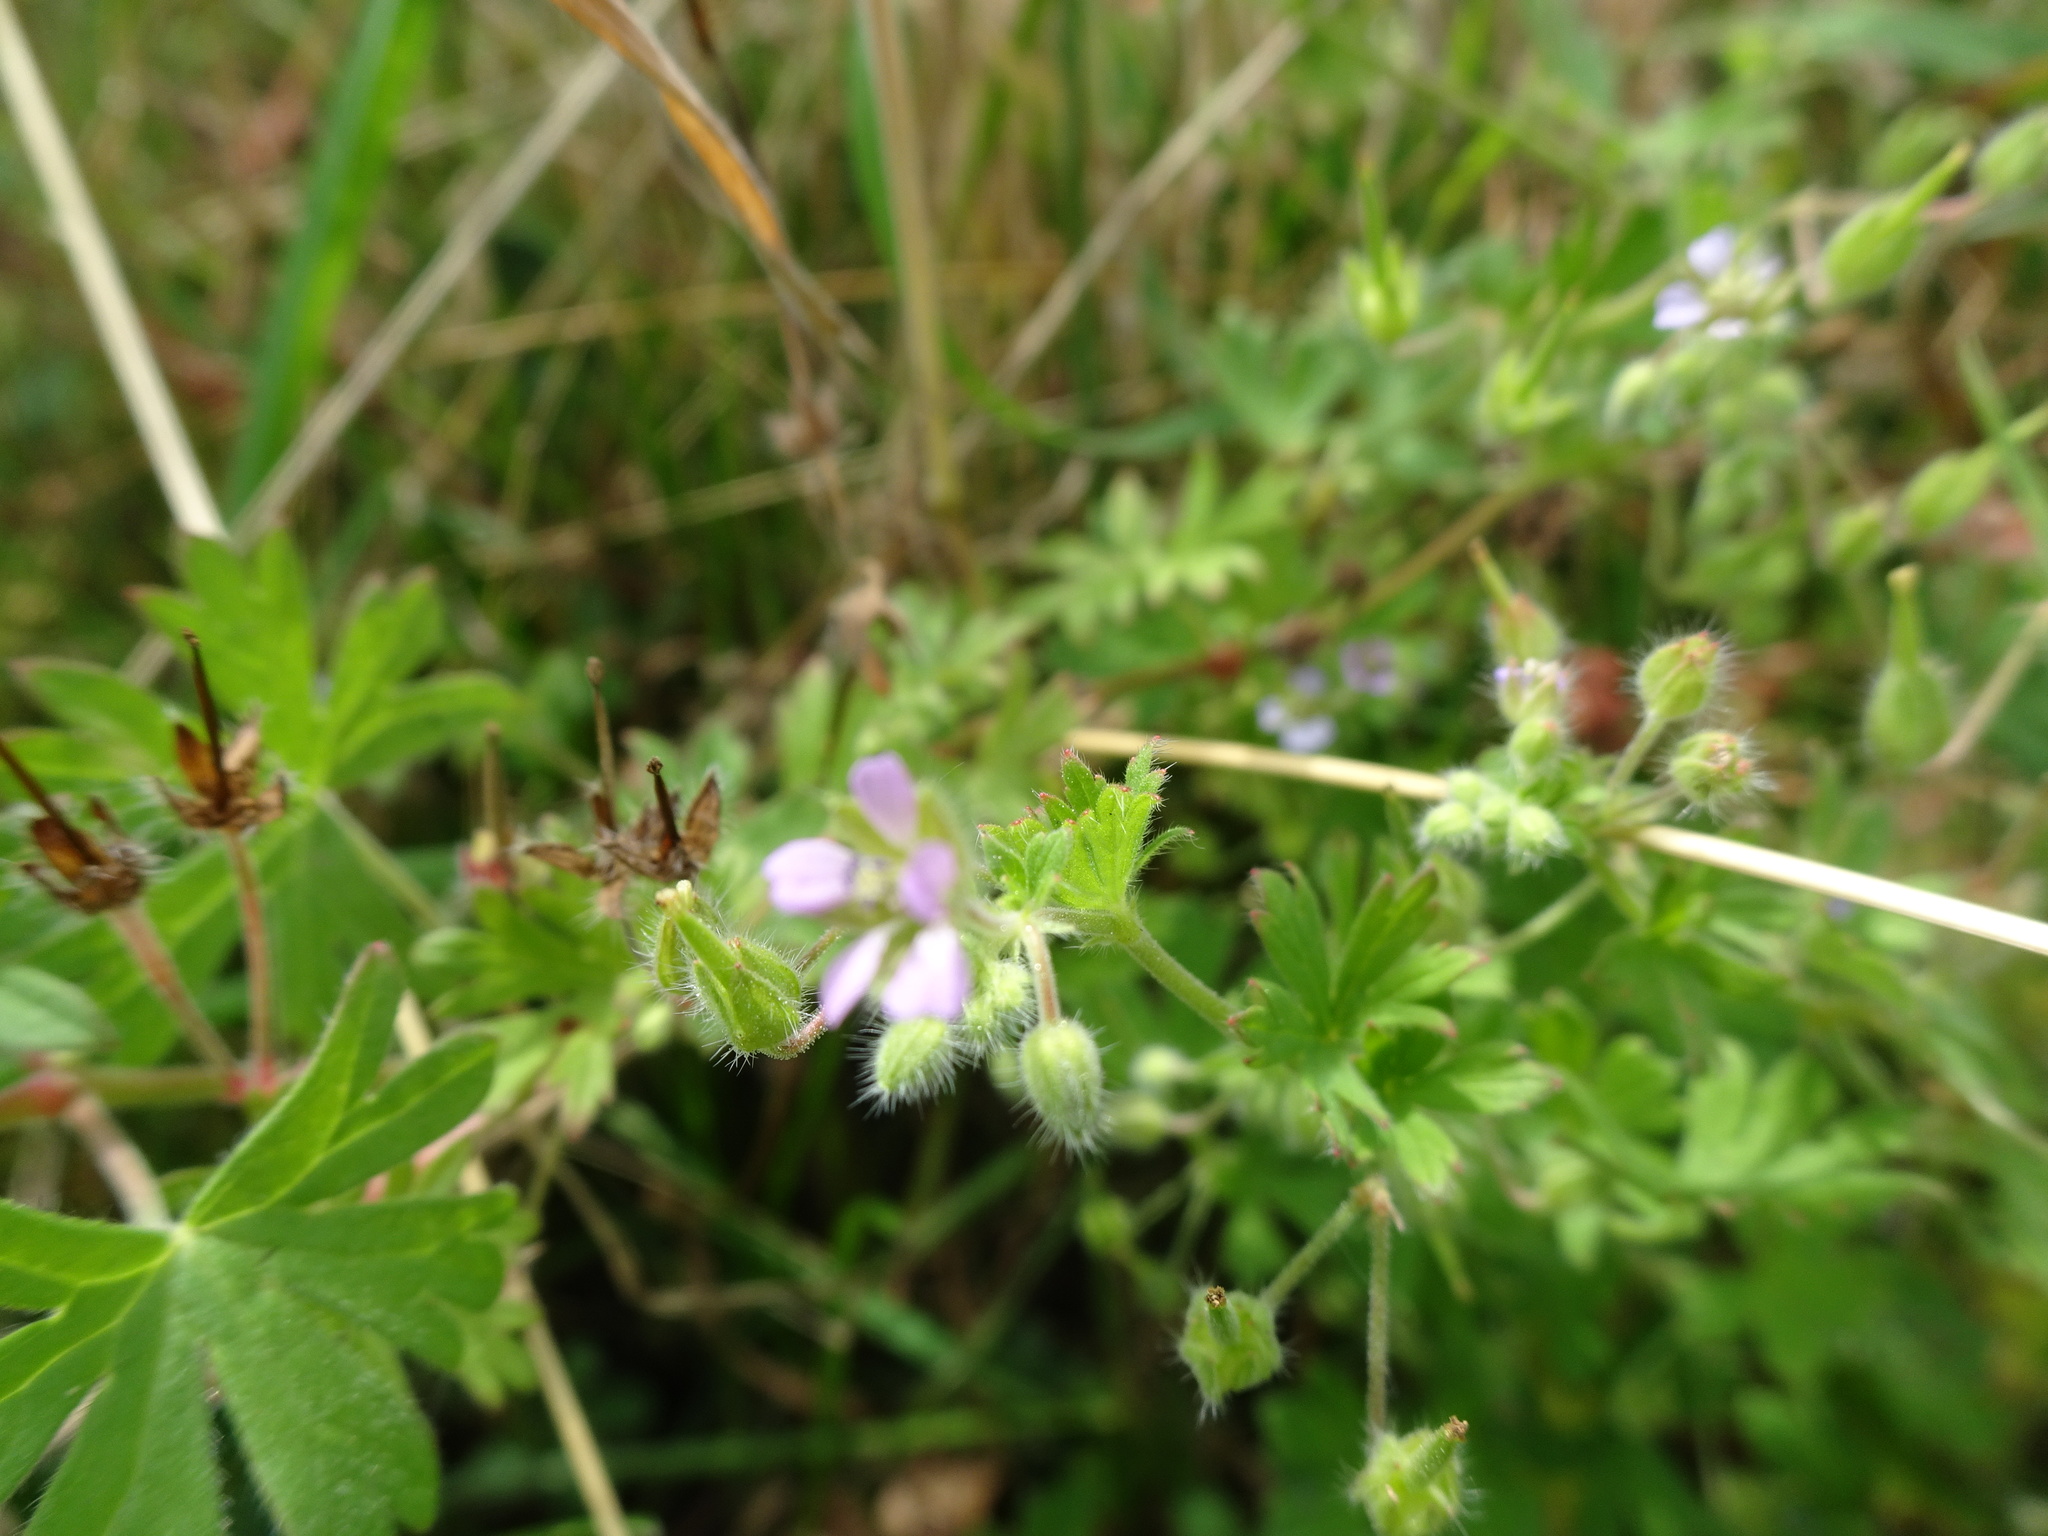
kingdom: Plantae
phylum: Tracheophyta
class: Magnoliopsida
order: Geraniales
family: Geraniaceae
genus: Geranium
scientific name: Geranium pusillum
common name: Small geranium
